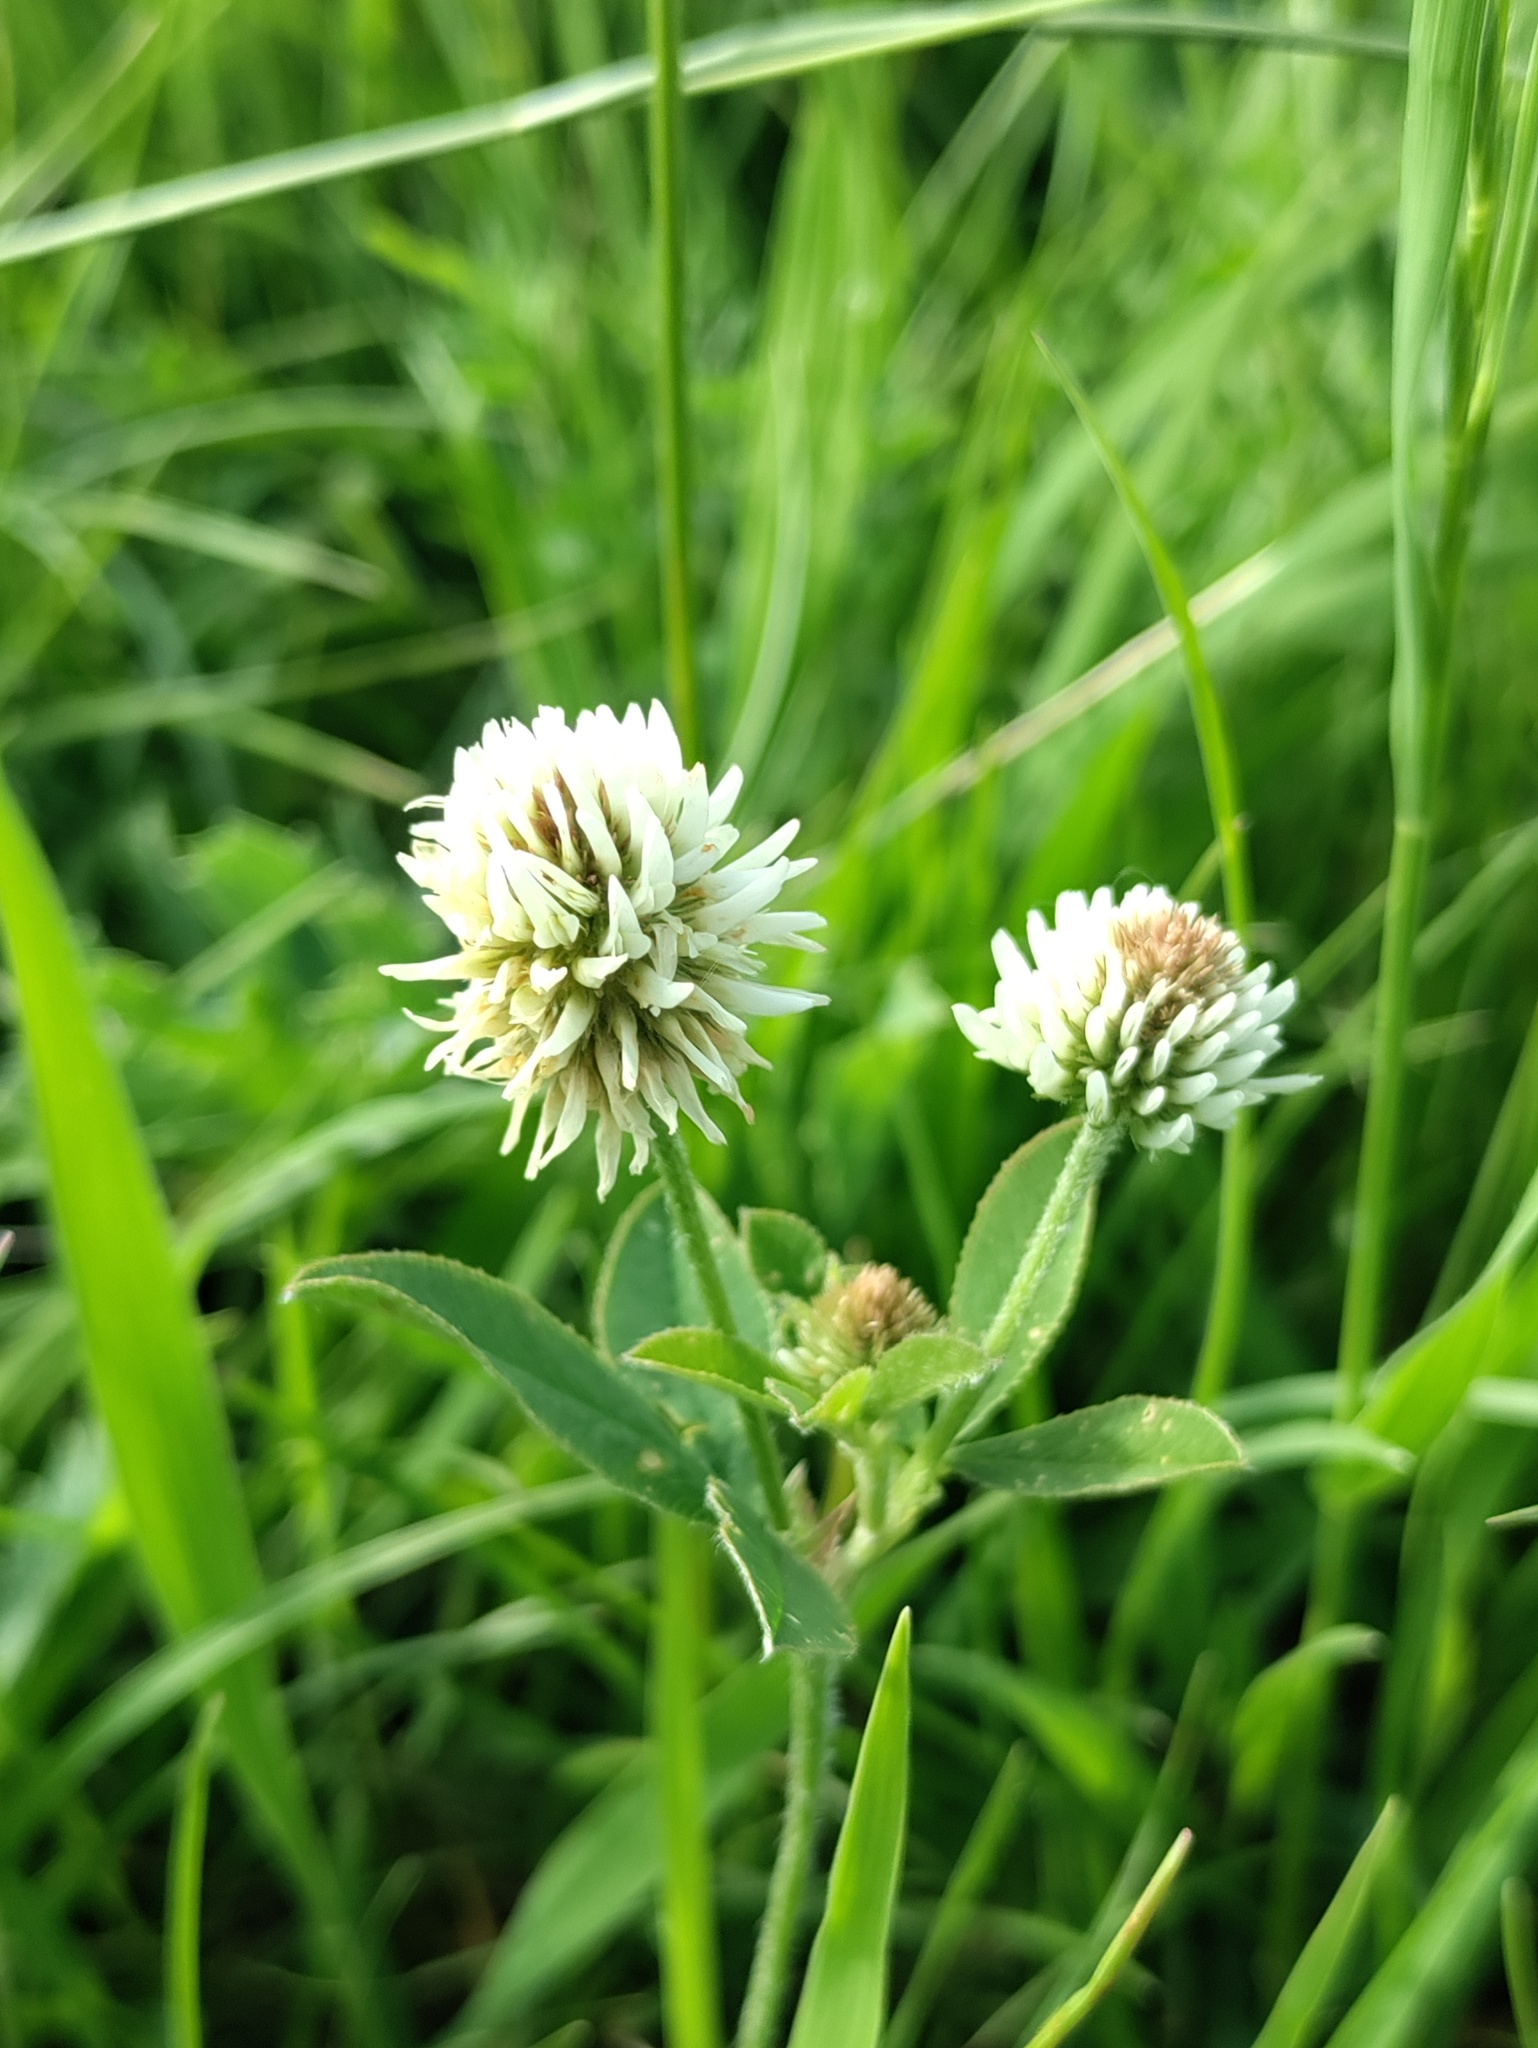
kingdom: Plantae
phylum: Tracheophyta
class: Magnoliopsida
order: Fabales
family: Fabaceae
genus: Trifolium
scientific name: Trifolium montanum
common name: Mountain clover
